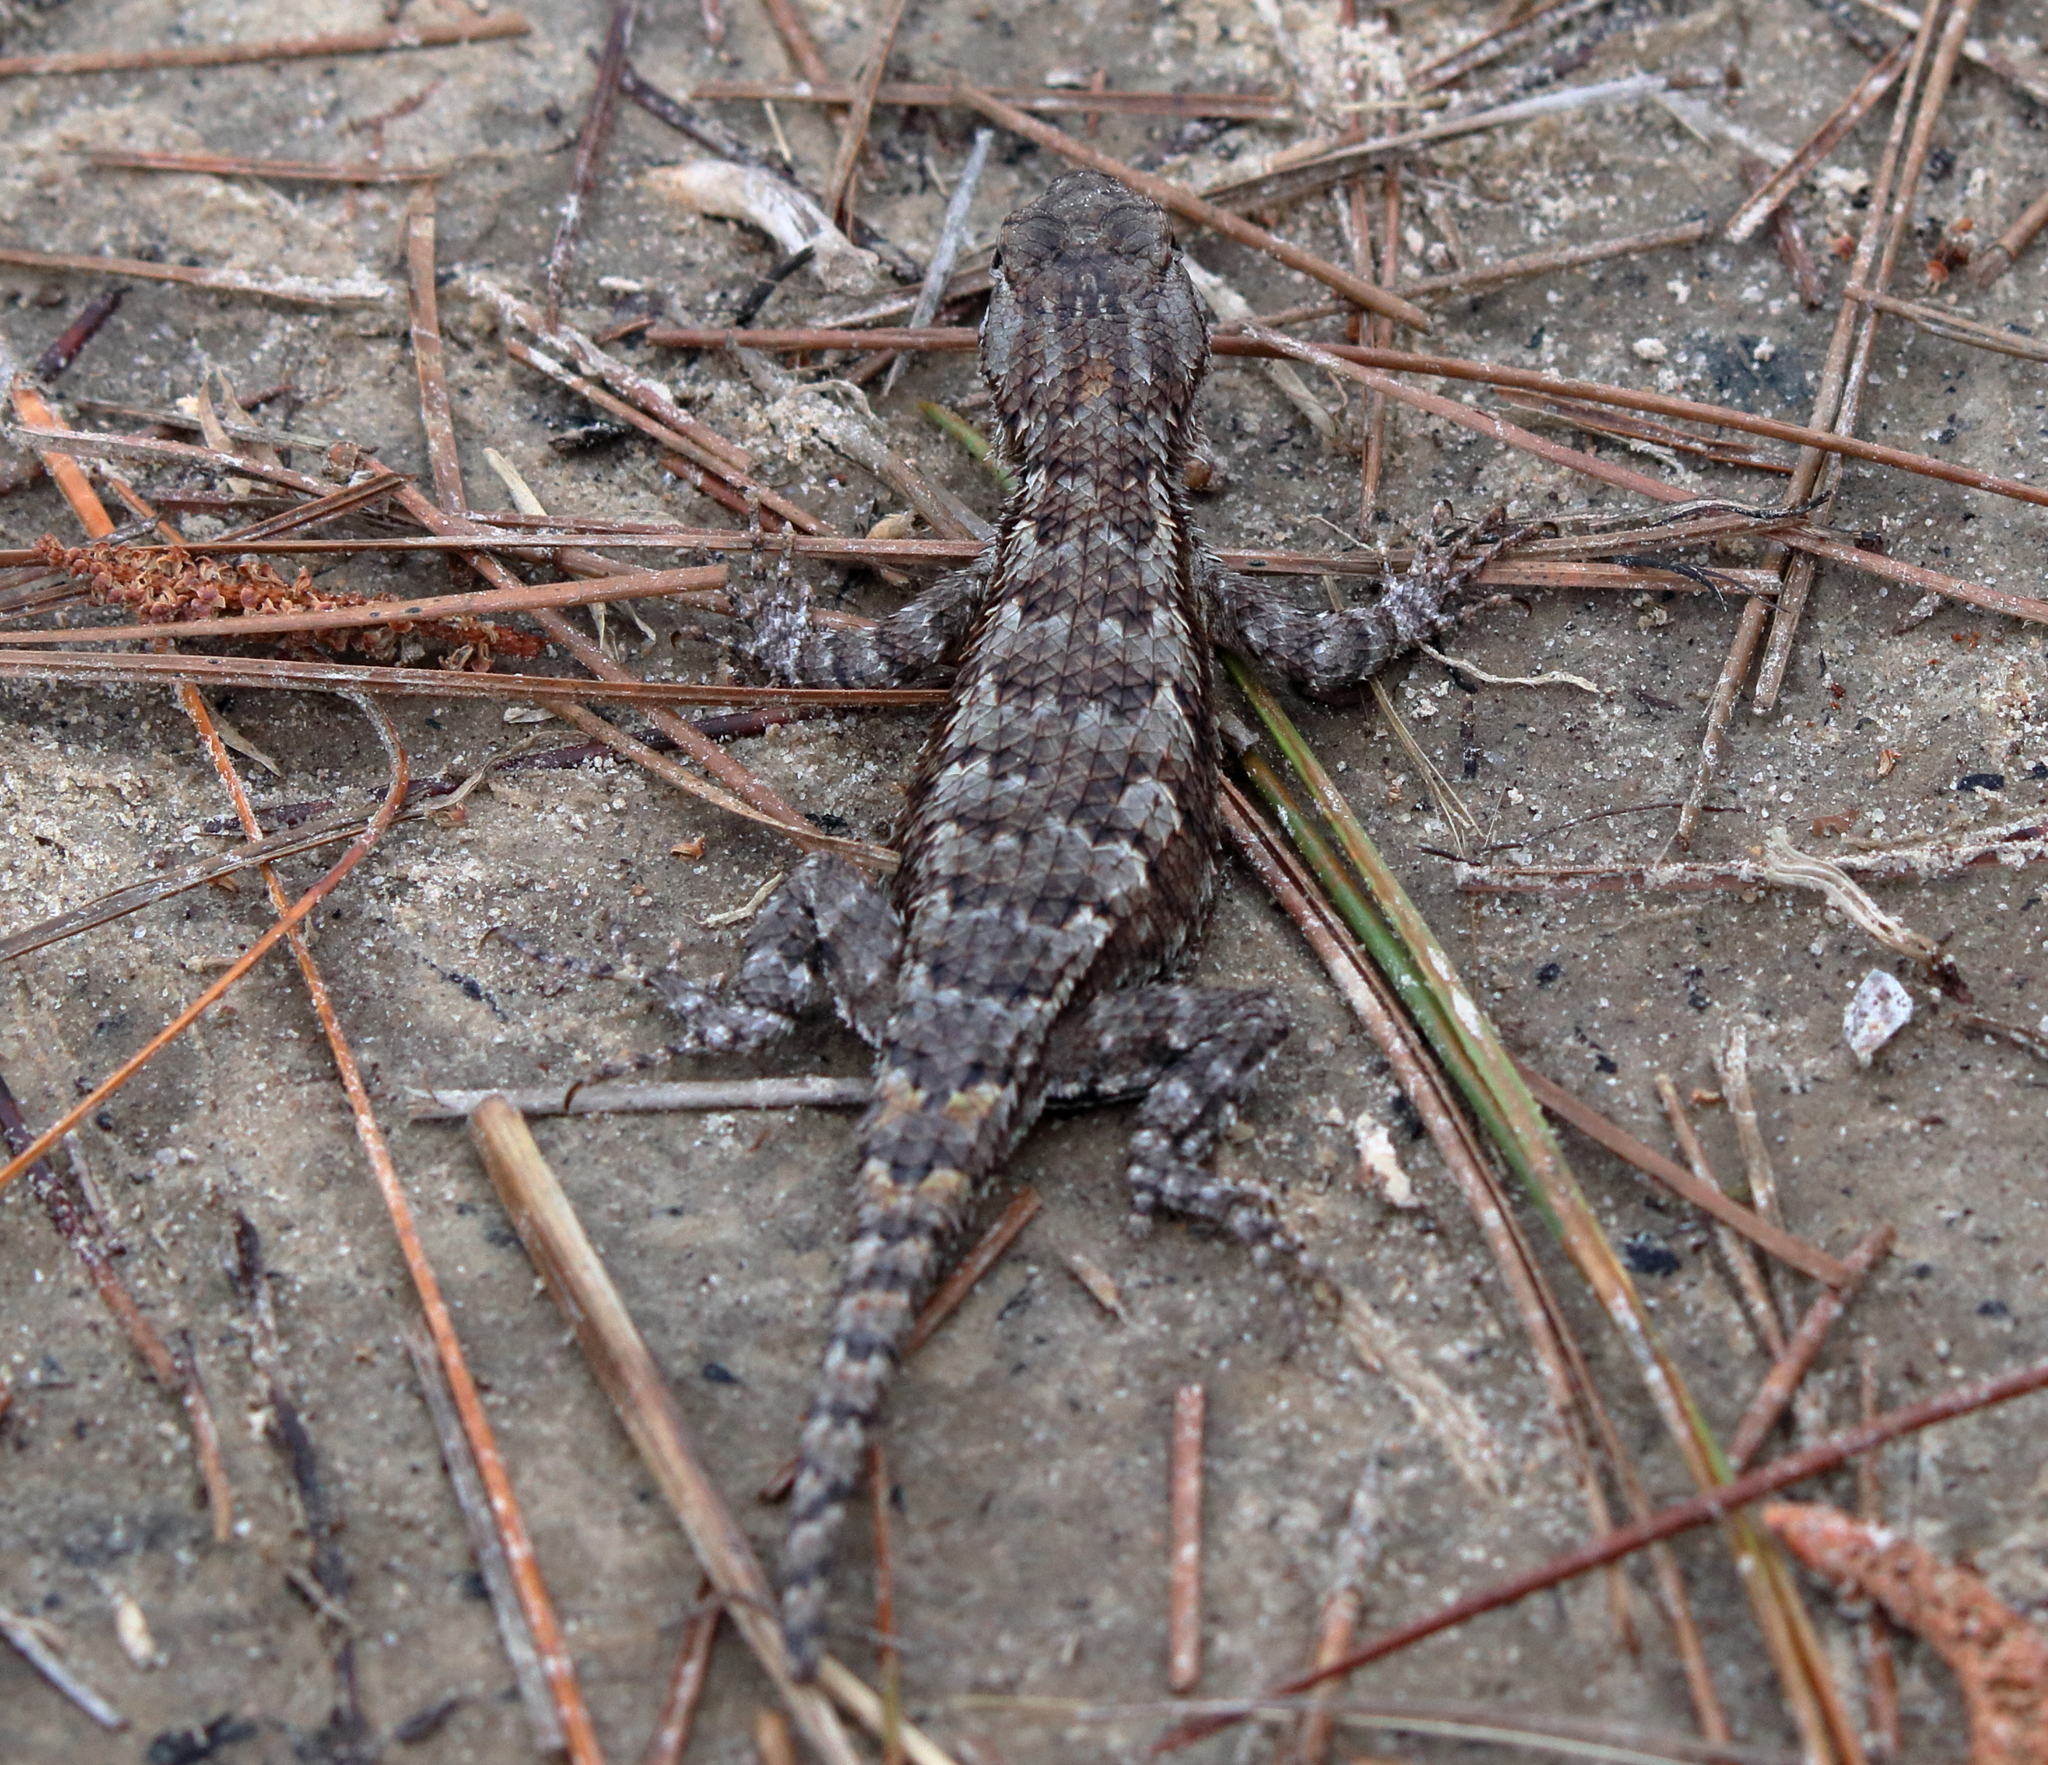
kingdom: Animalia
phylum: Chordata
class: Squamata
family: Phrynosomatidae
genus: Sceloporus
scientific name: Sceloporus undulatus
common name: Eastern fence lizard
